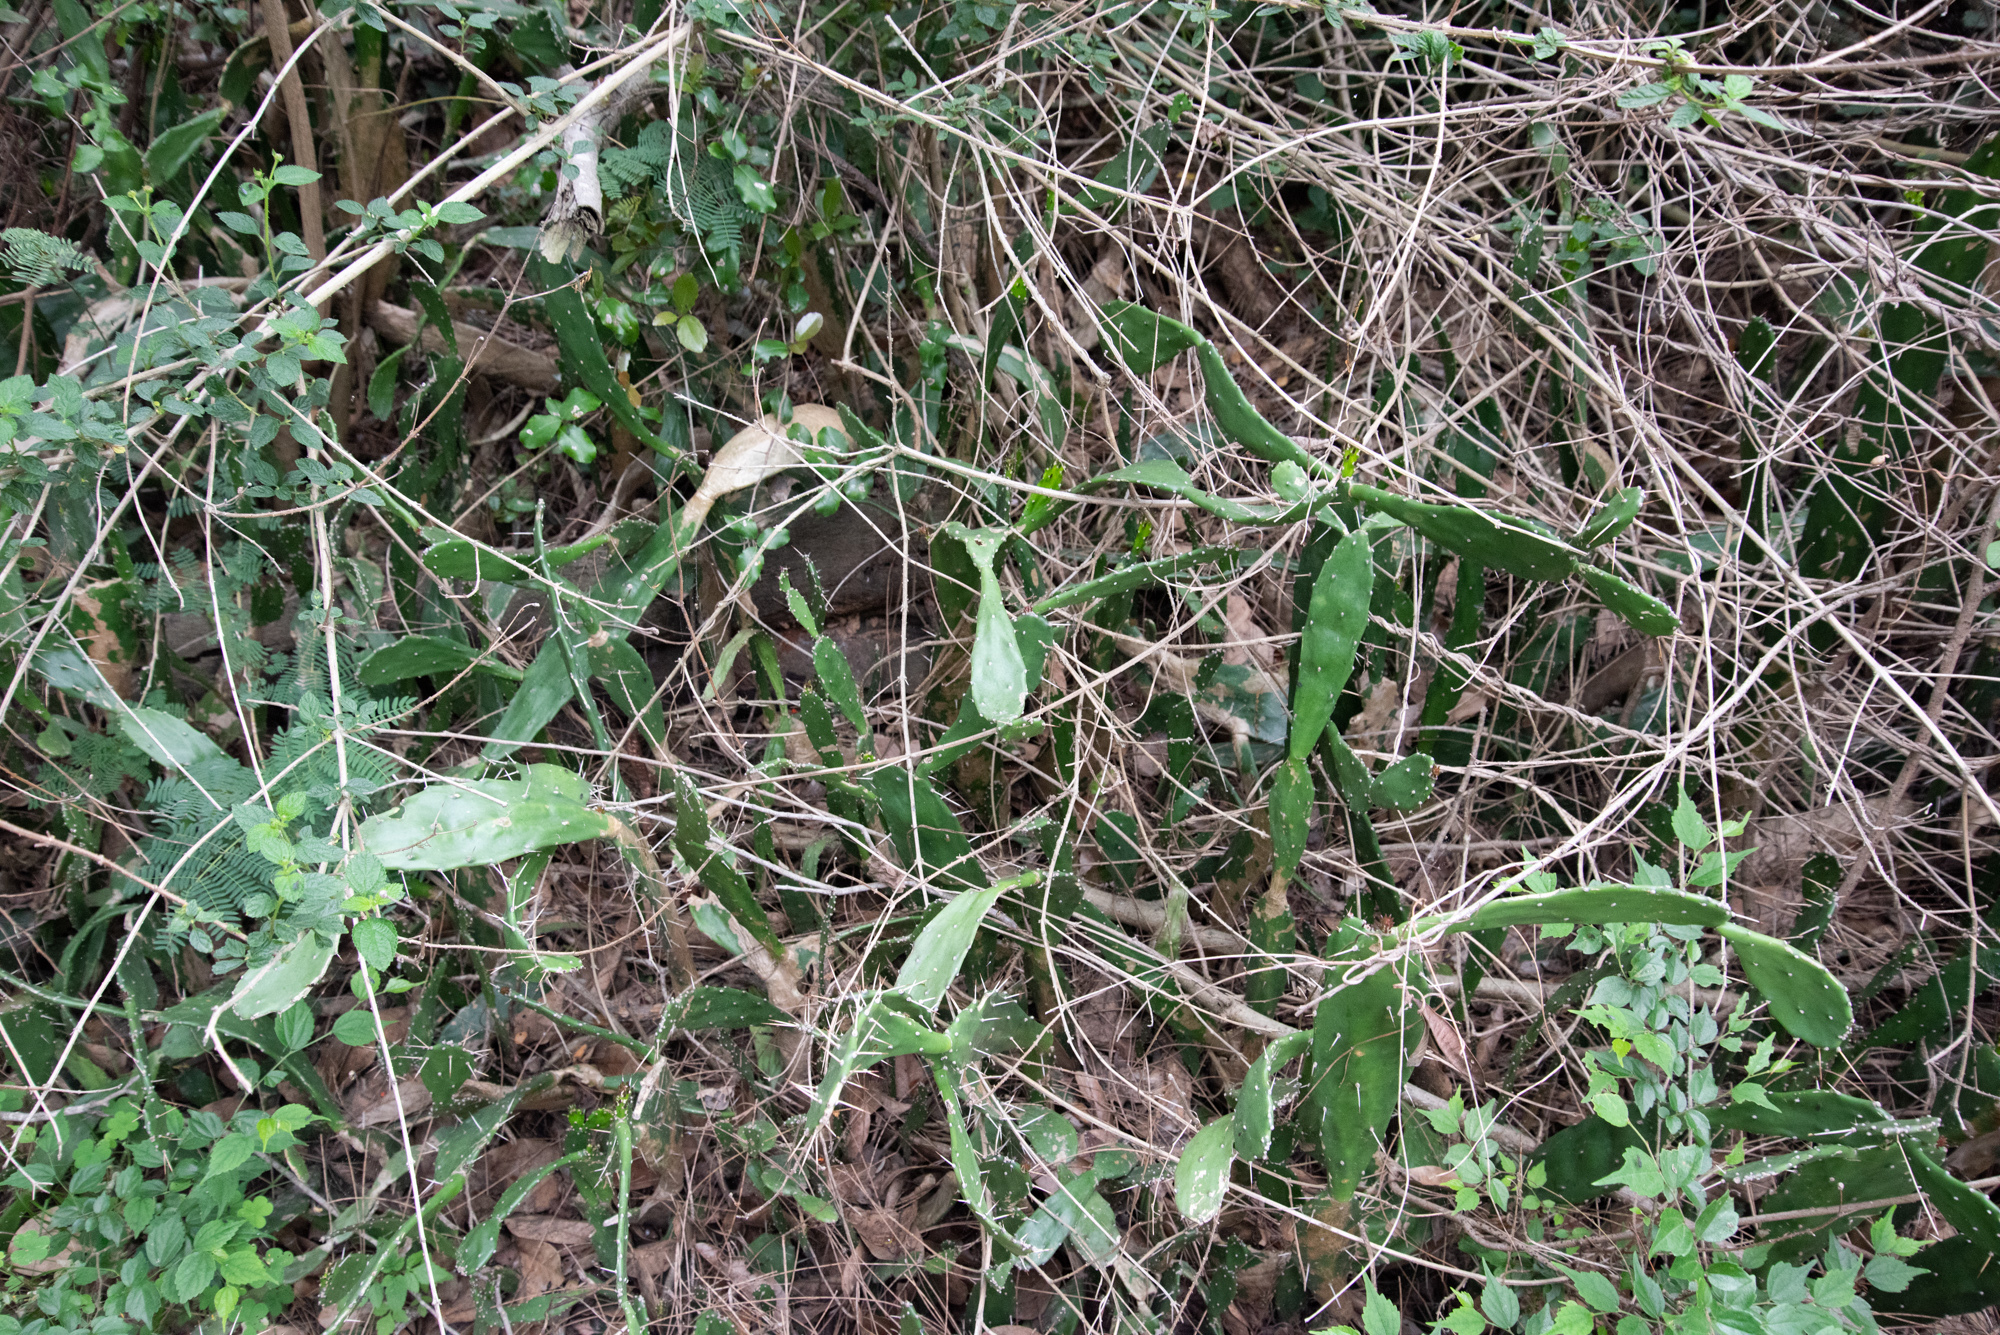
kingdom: Plantae
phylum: Tracheophyta
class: Magnoliopsida
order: Caryophyllales
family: Cactaceae
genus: Opuntia
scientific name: Opuntia monacantha
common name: Common pricklypear
